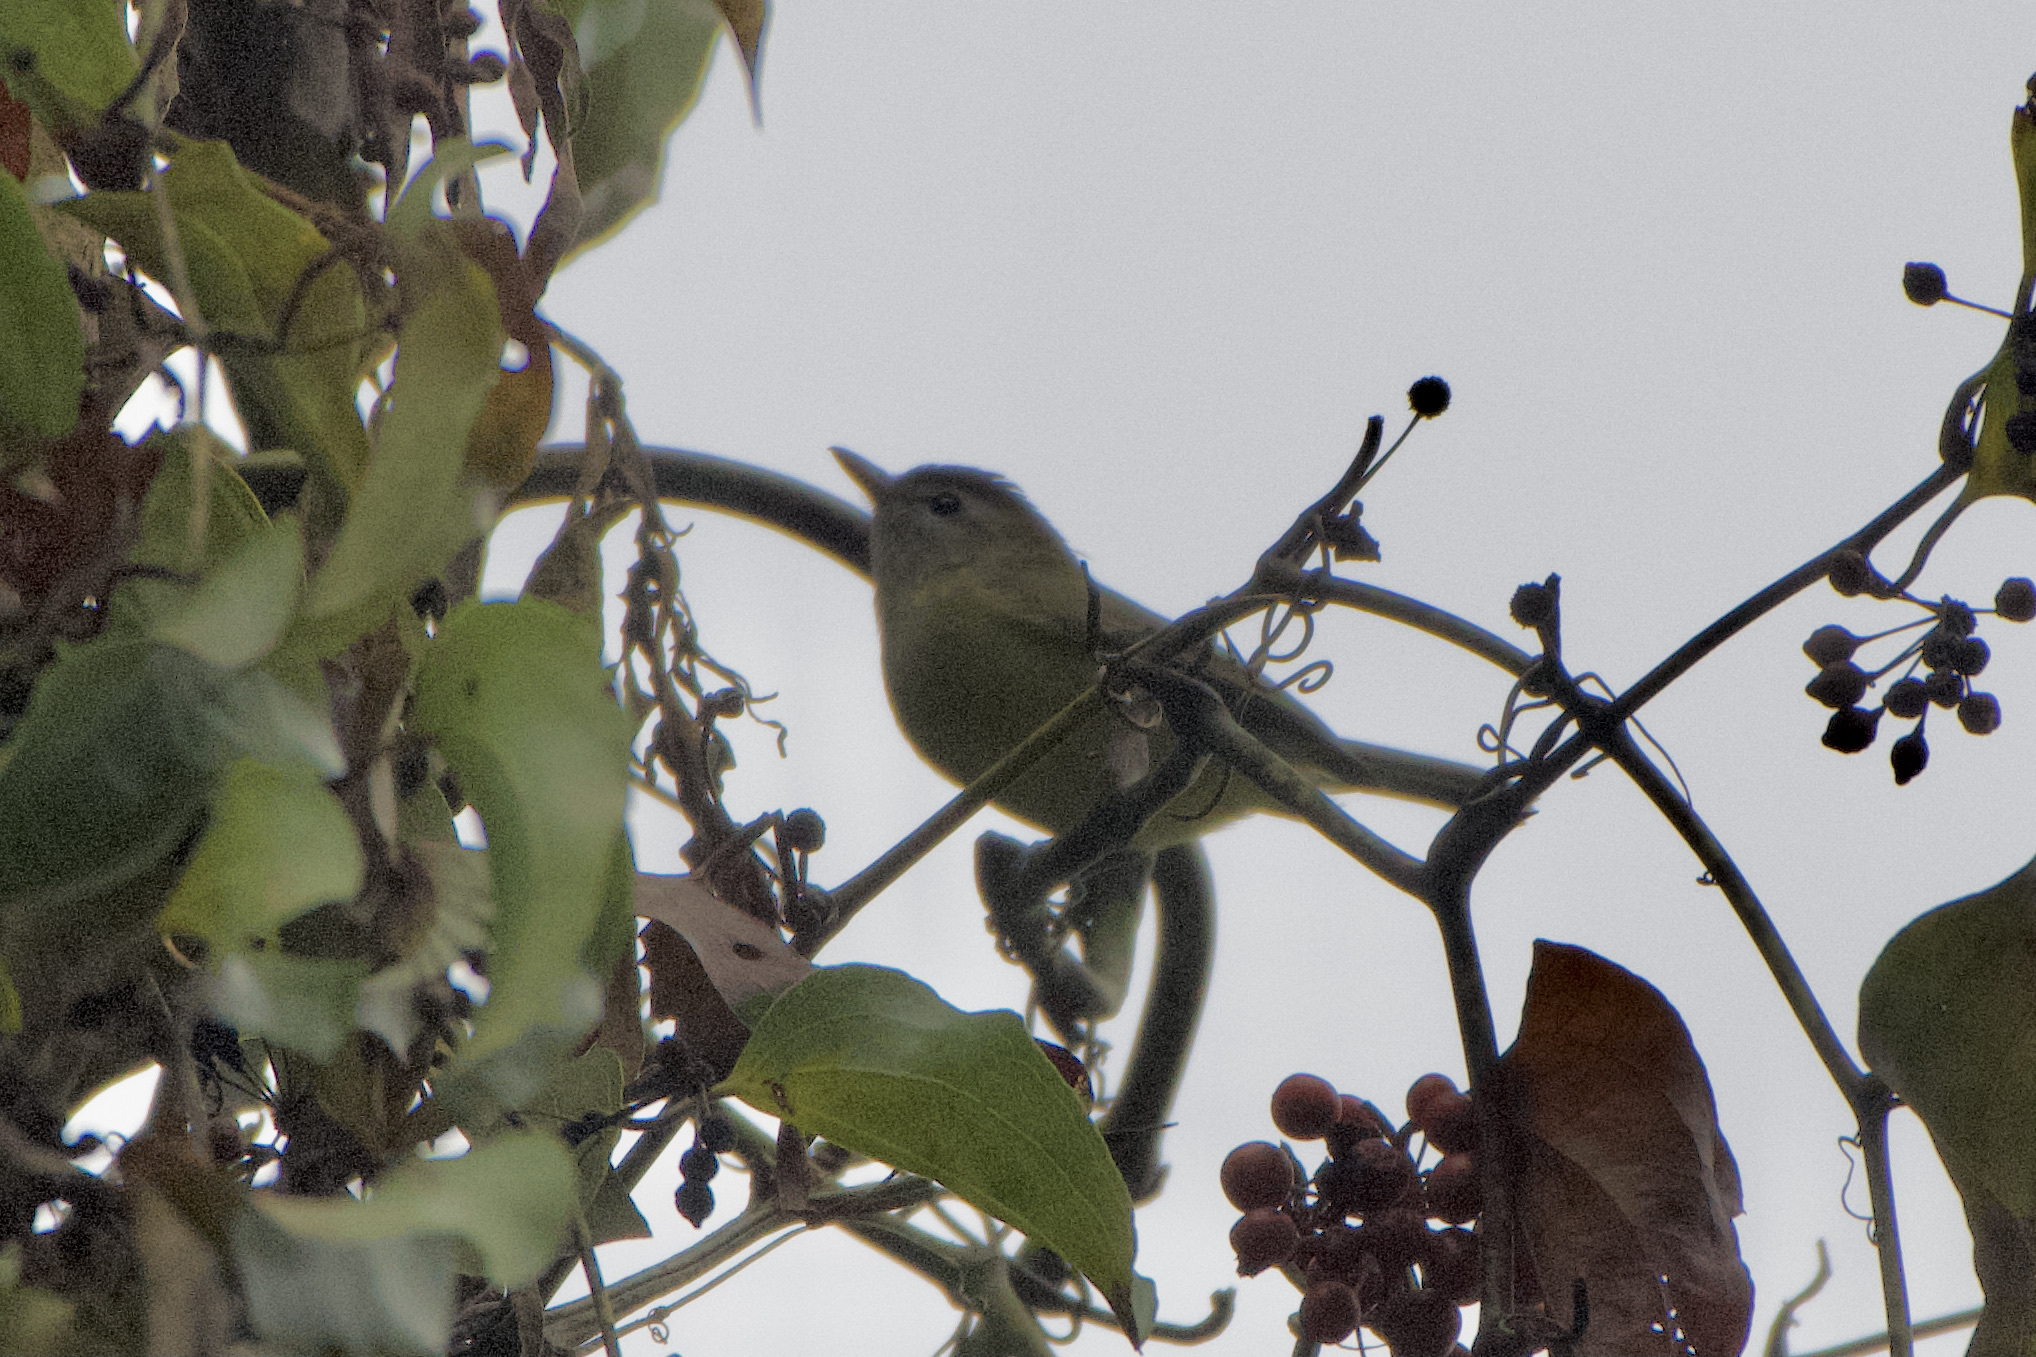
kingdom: Animalia
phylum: Chordata
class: Aves
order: Passeriformes
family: Vireonidae
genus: Vireo
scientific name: Vireo philadelphicus
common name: Philadelphia vireo
